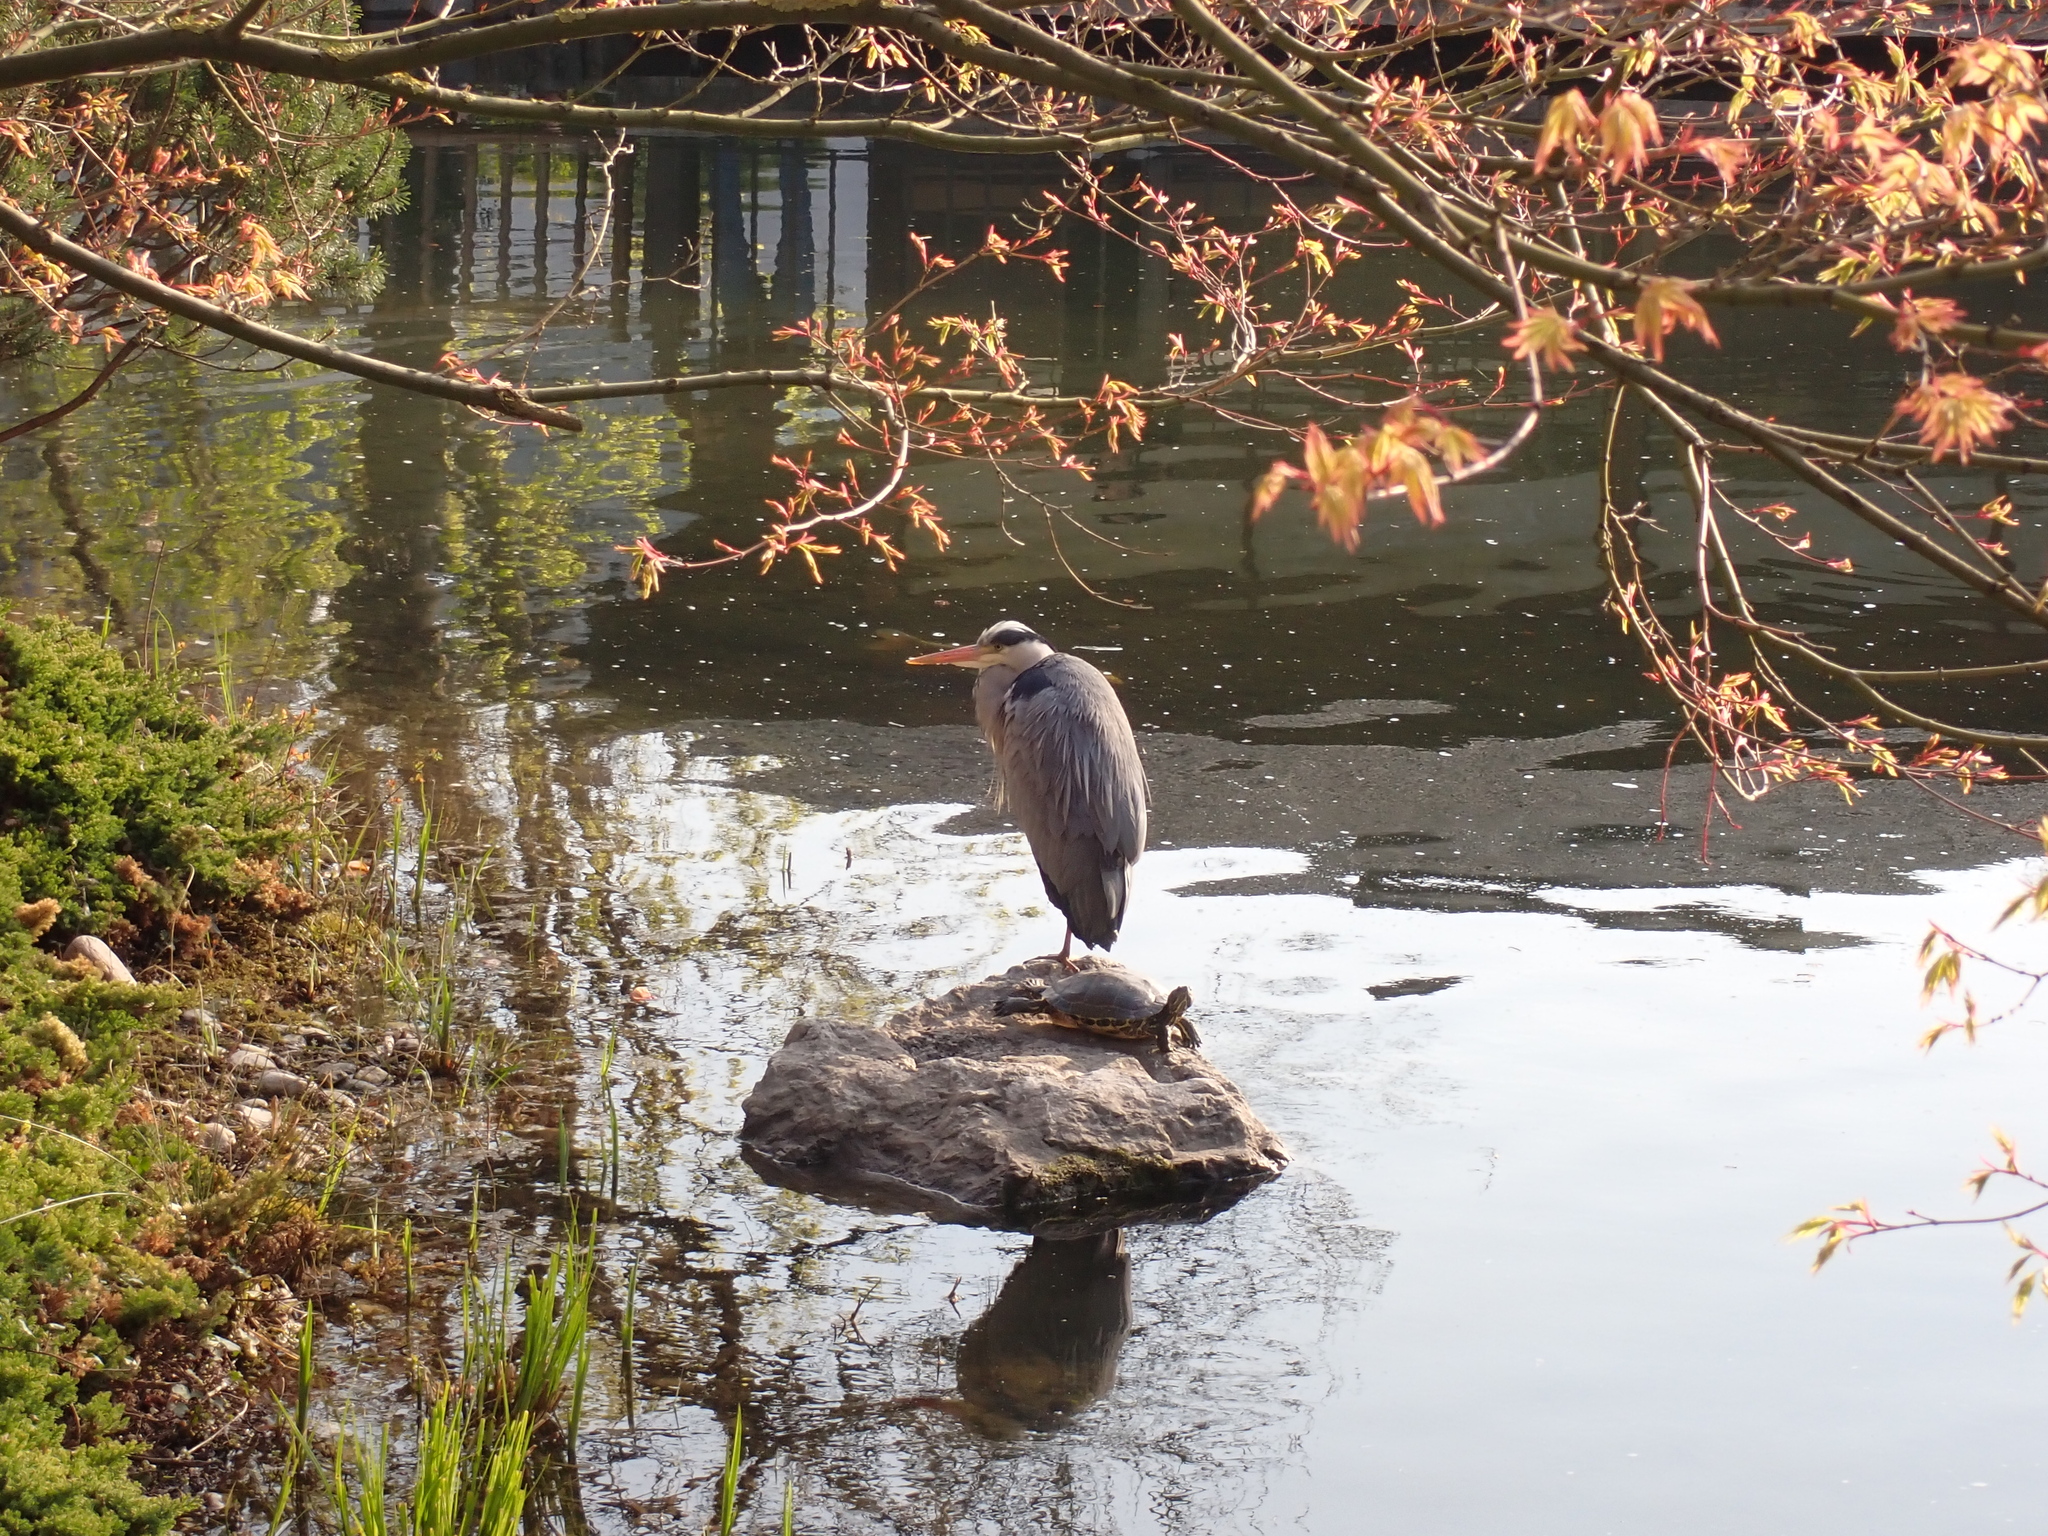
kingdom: Animalia
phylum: Chordata
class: Aves
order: Pelecaniformes
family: Ardeidae
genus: Ardea
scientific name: Ardea cinerea
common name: Grey heron
